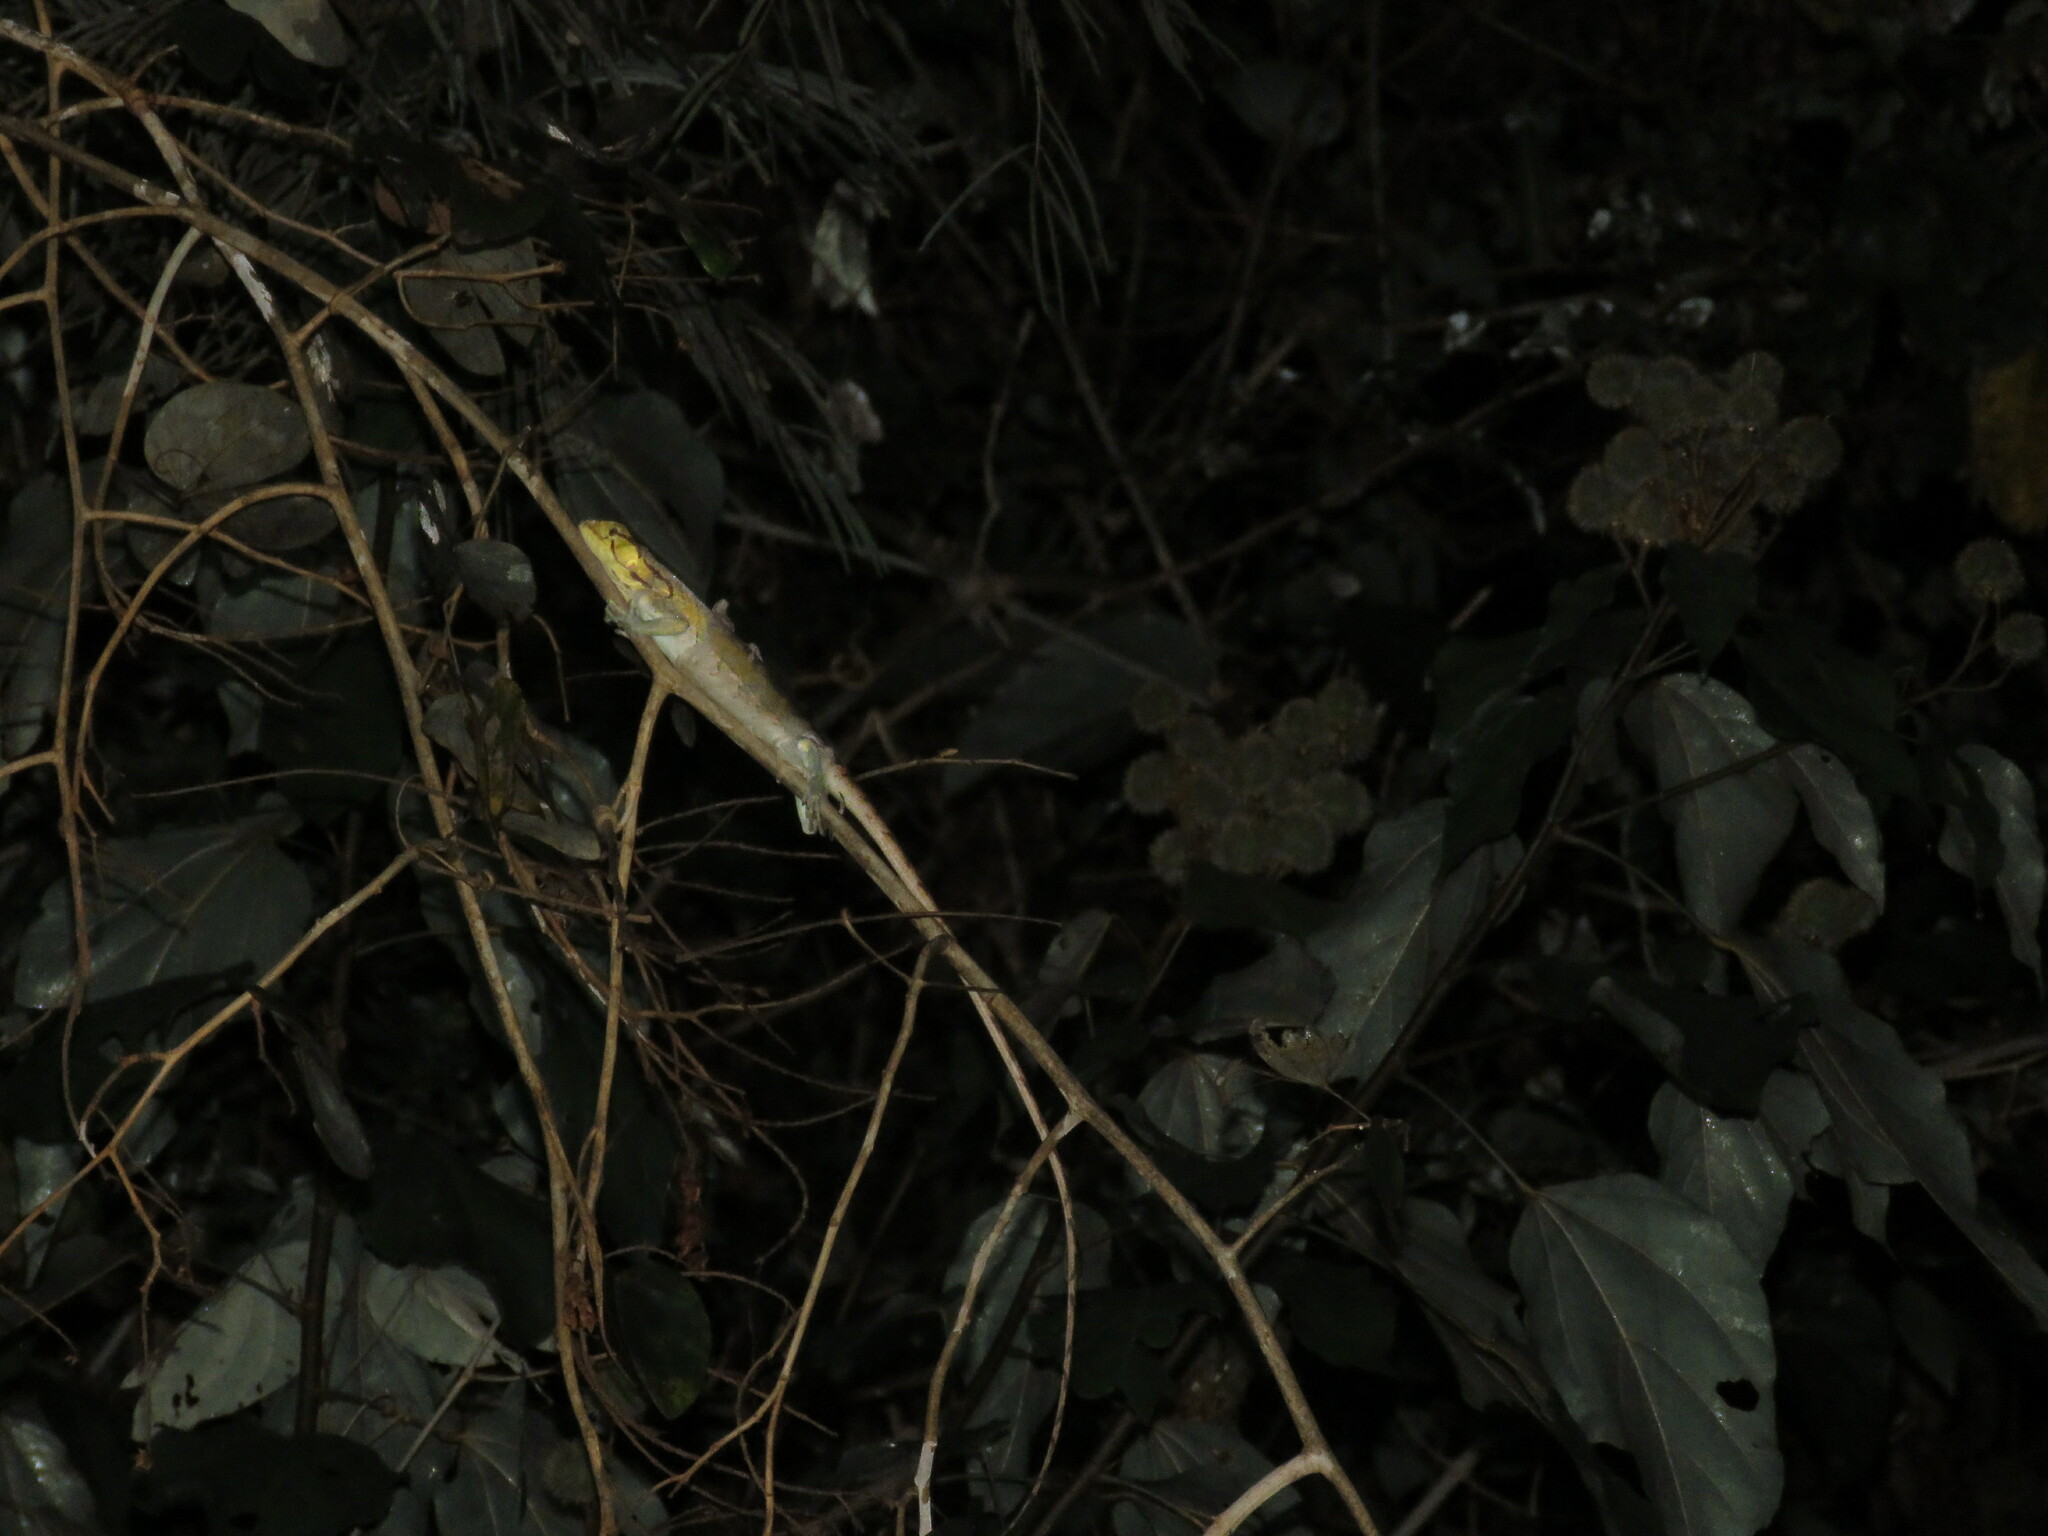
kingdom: Animalia
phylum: Chordata
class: Squamata
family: Polychrotidae
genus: Polychrus
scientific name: Polychrus liogaster
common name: Boulenger's bush anole
